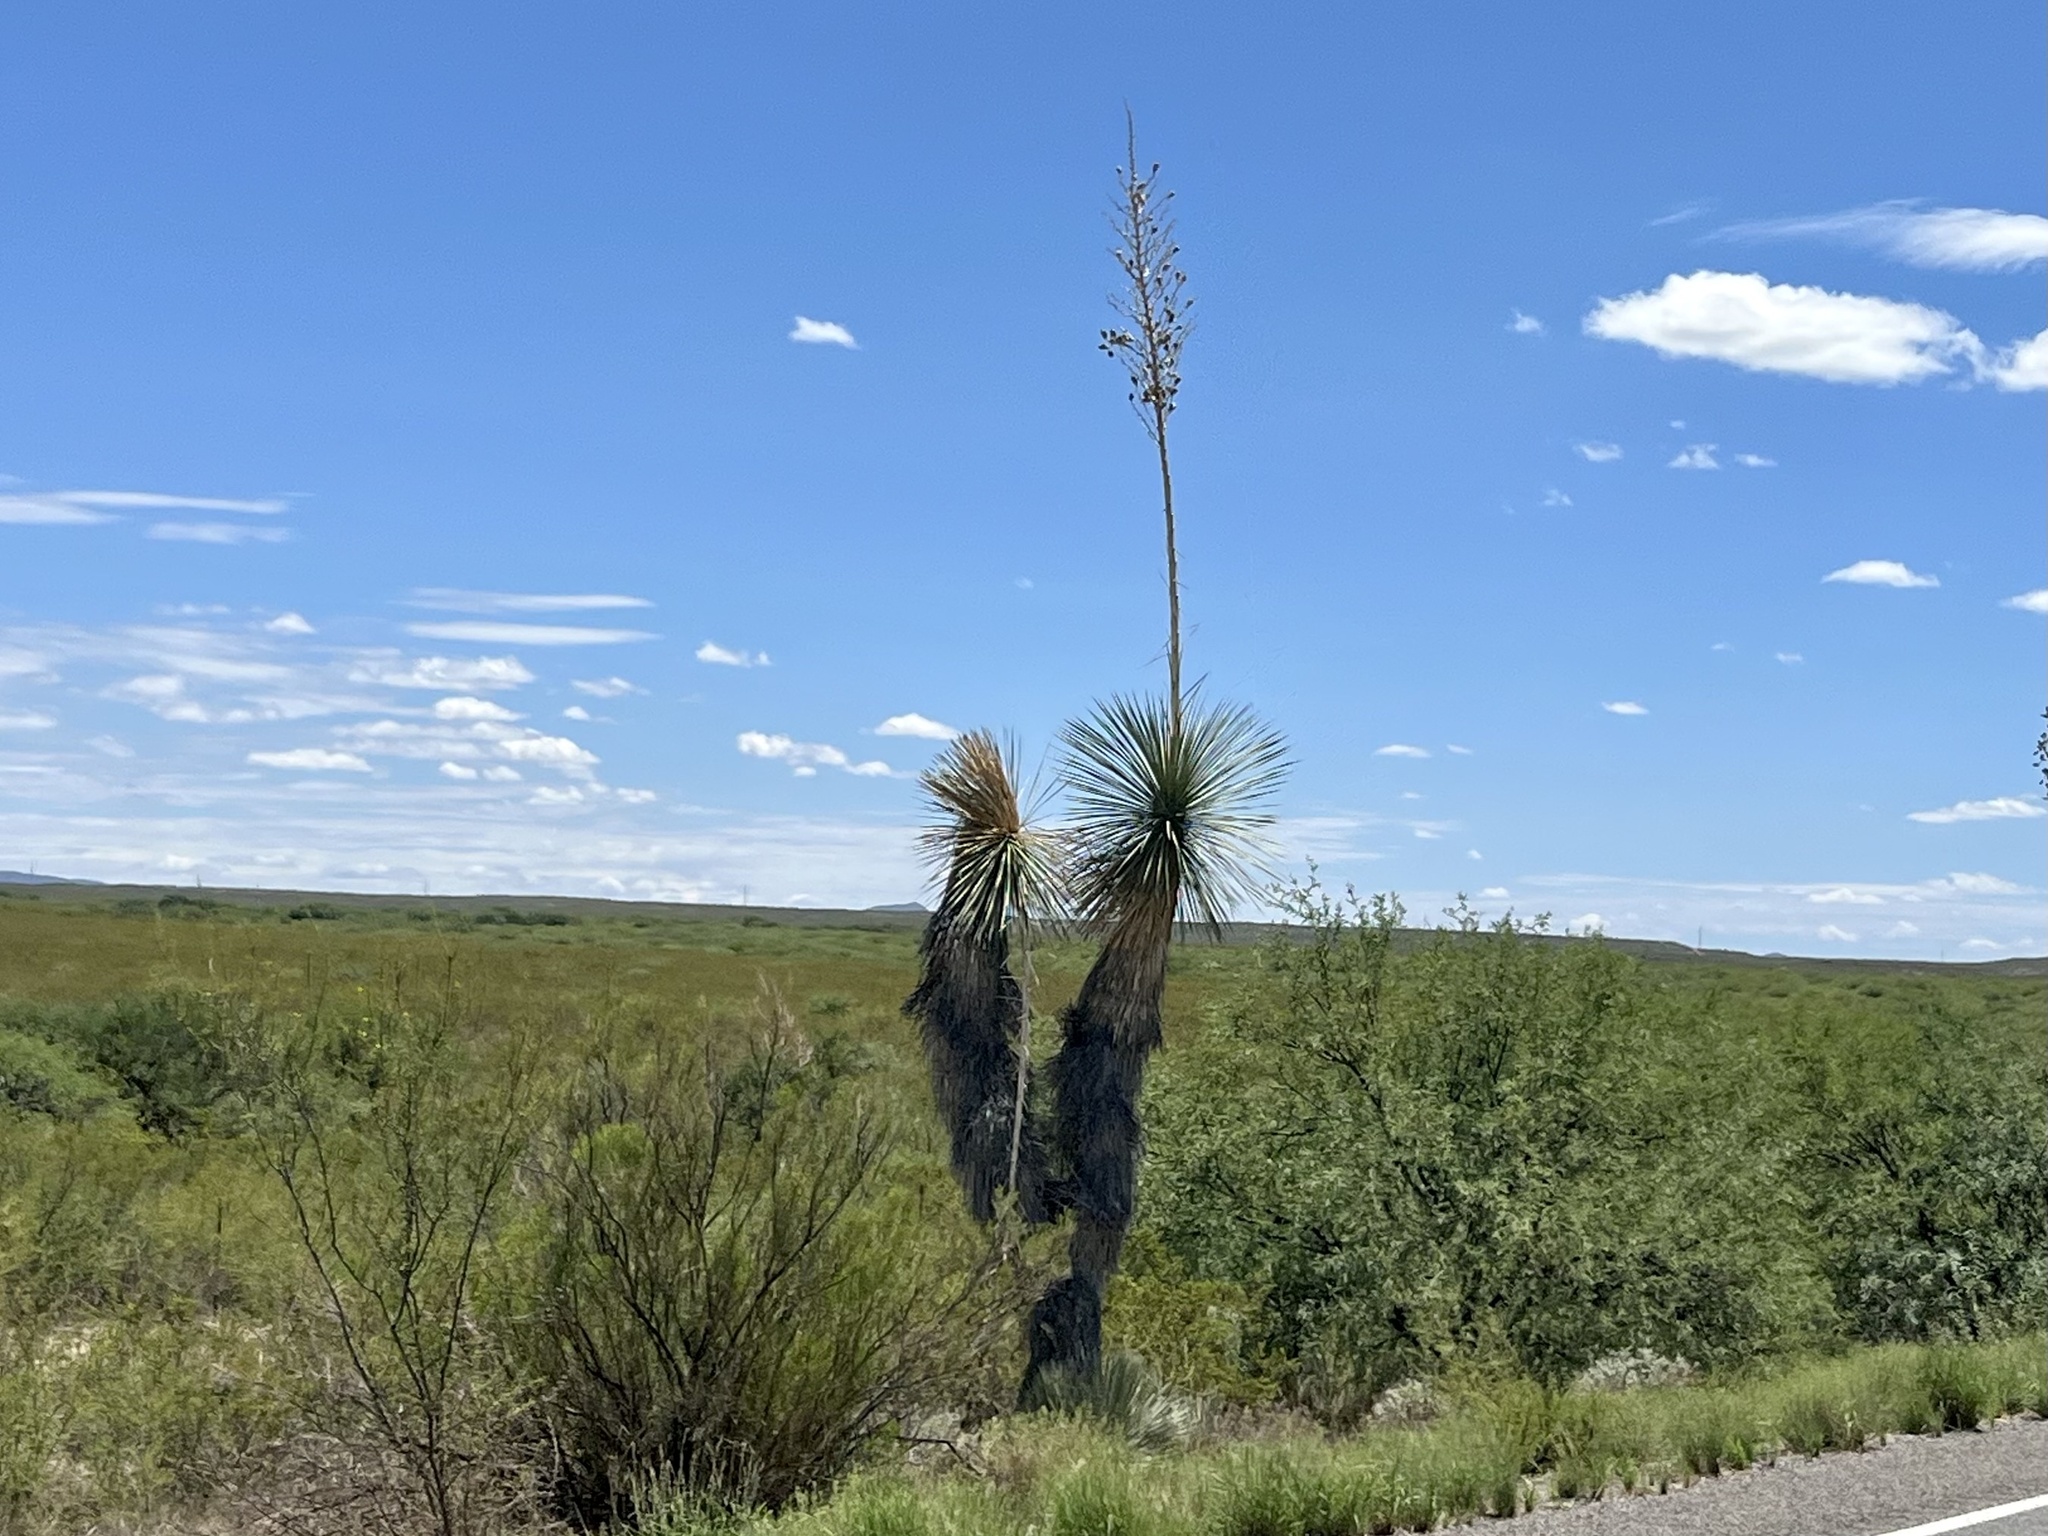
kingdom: Plantae
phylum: Tracheophyta
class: Liliopsida
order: Asparagales
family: Asparagaceae
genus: Yucca
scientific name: Yucca elata
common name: Palmella
